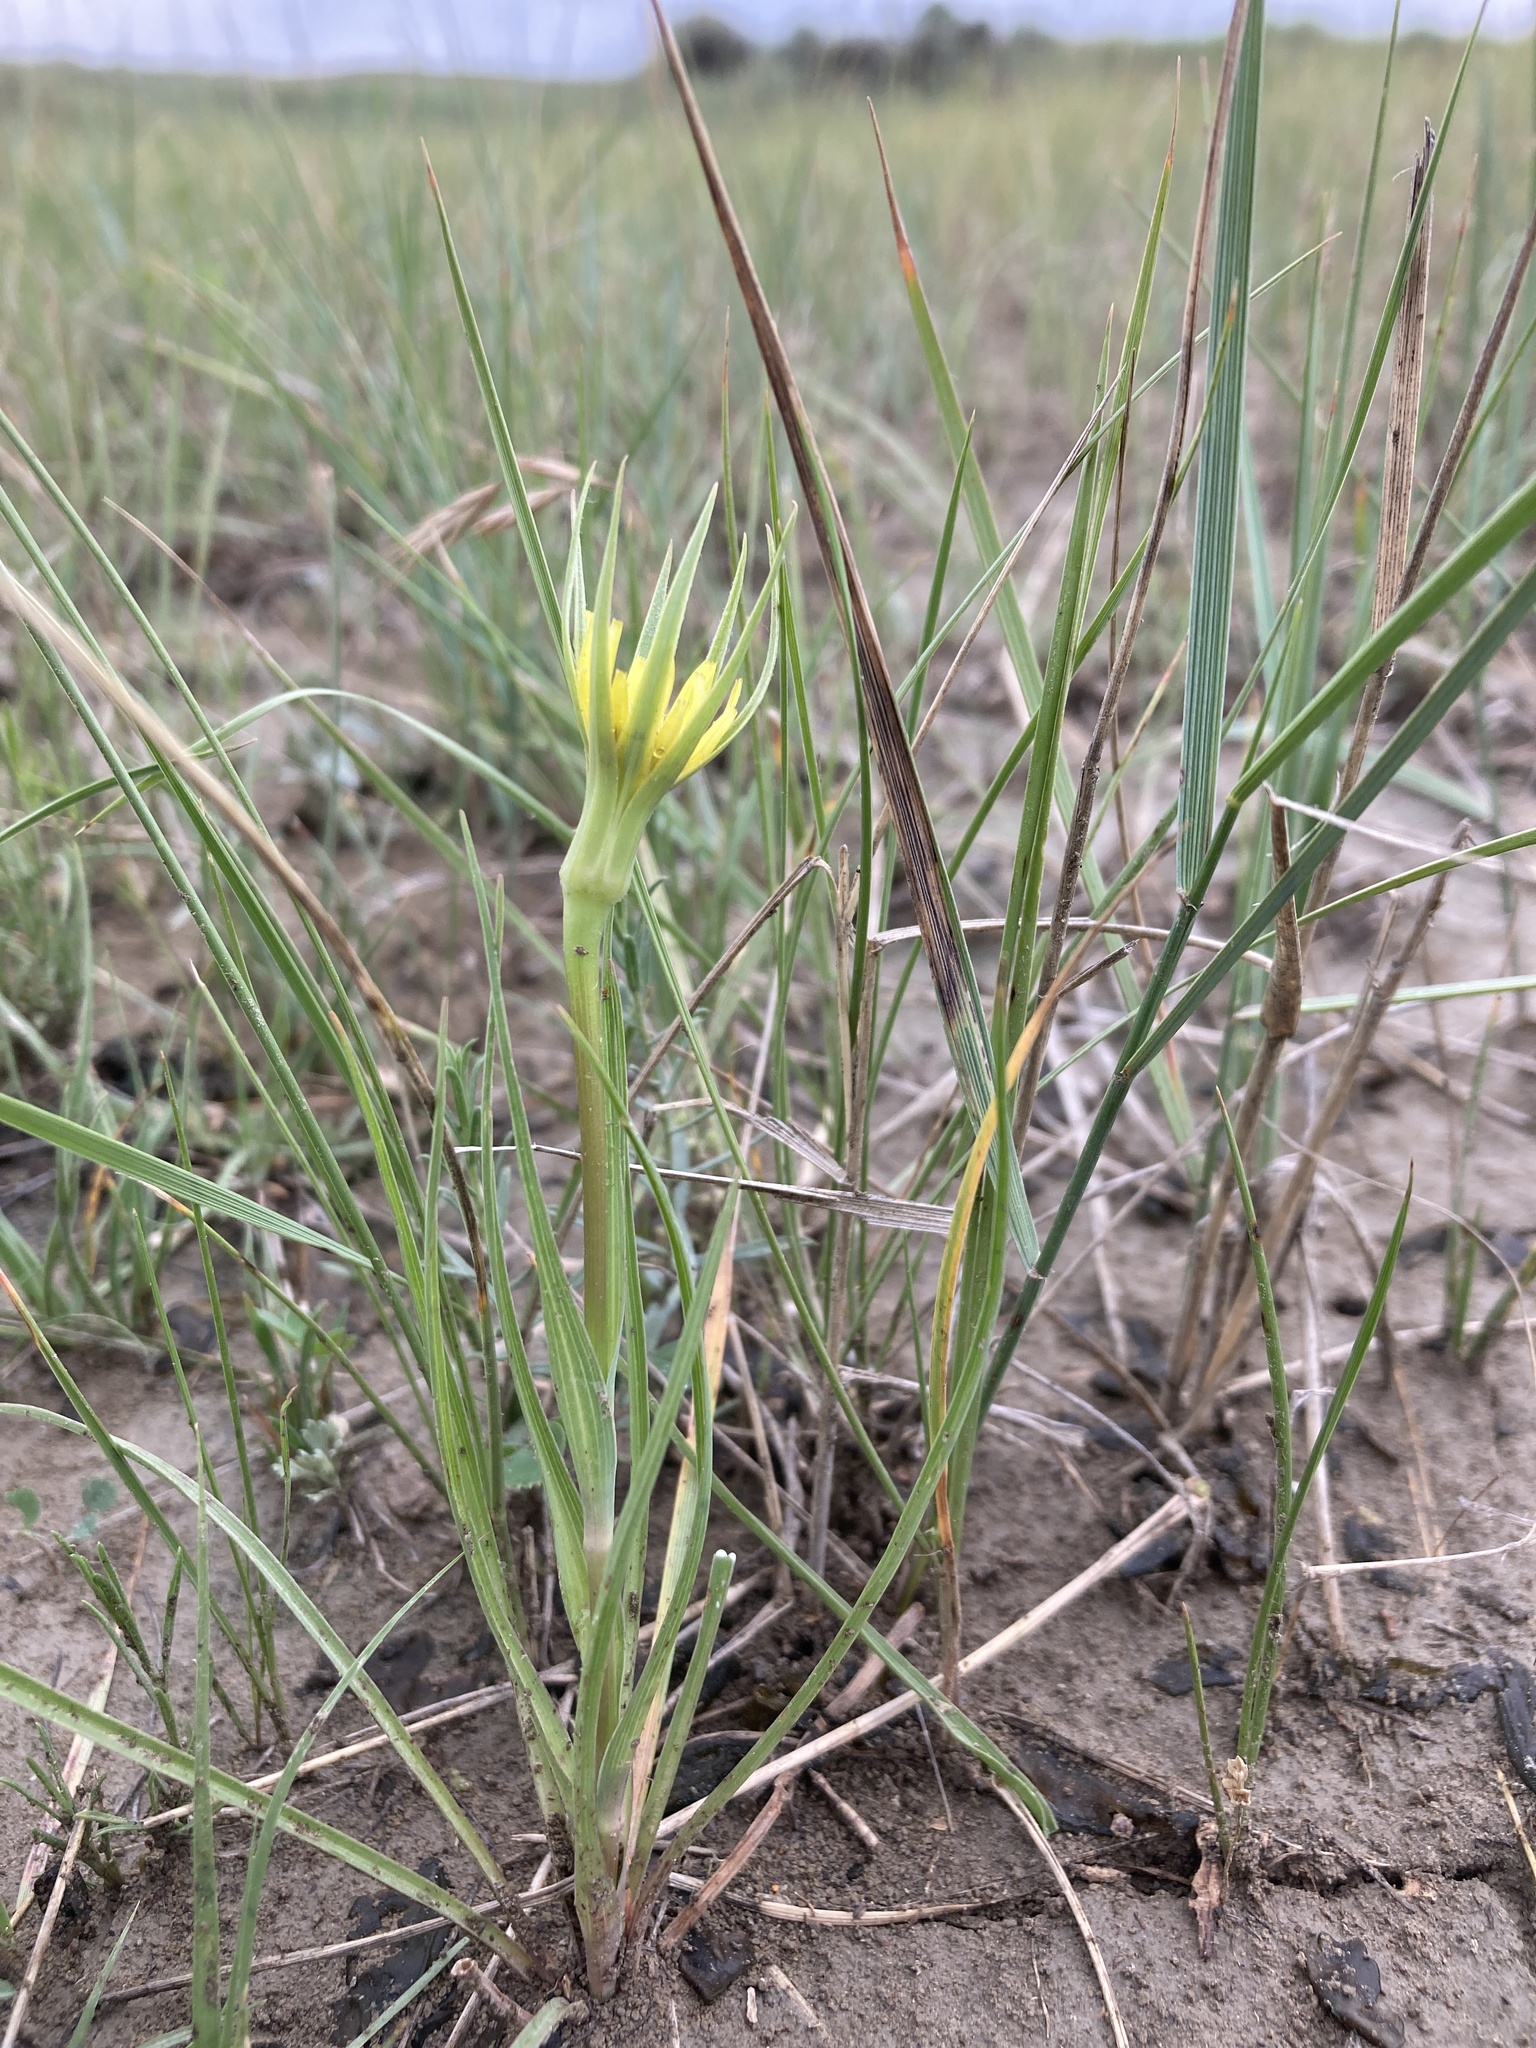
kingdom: Plantae
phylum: Tracheophyta
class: Magnoliopsida
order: Asterales
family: Asteraceae
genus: Tragopogon
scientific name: Tragopogon dubius
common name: Yellow salsify
